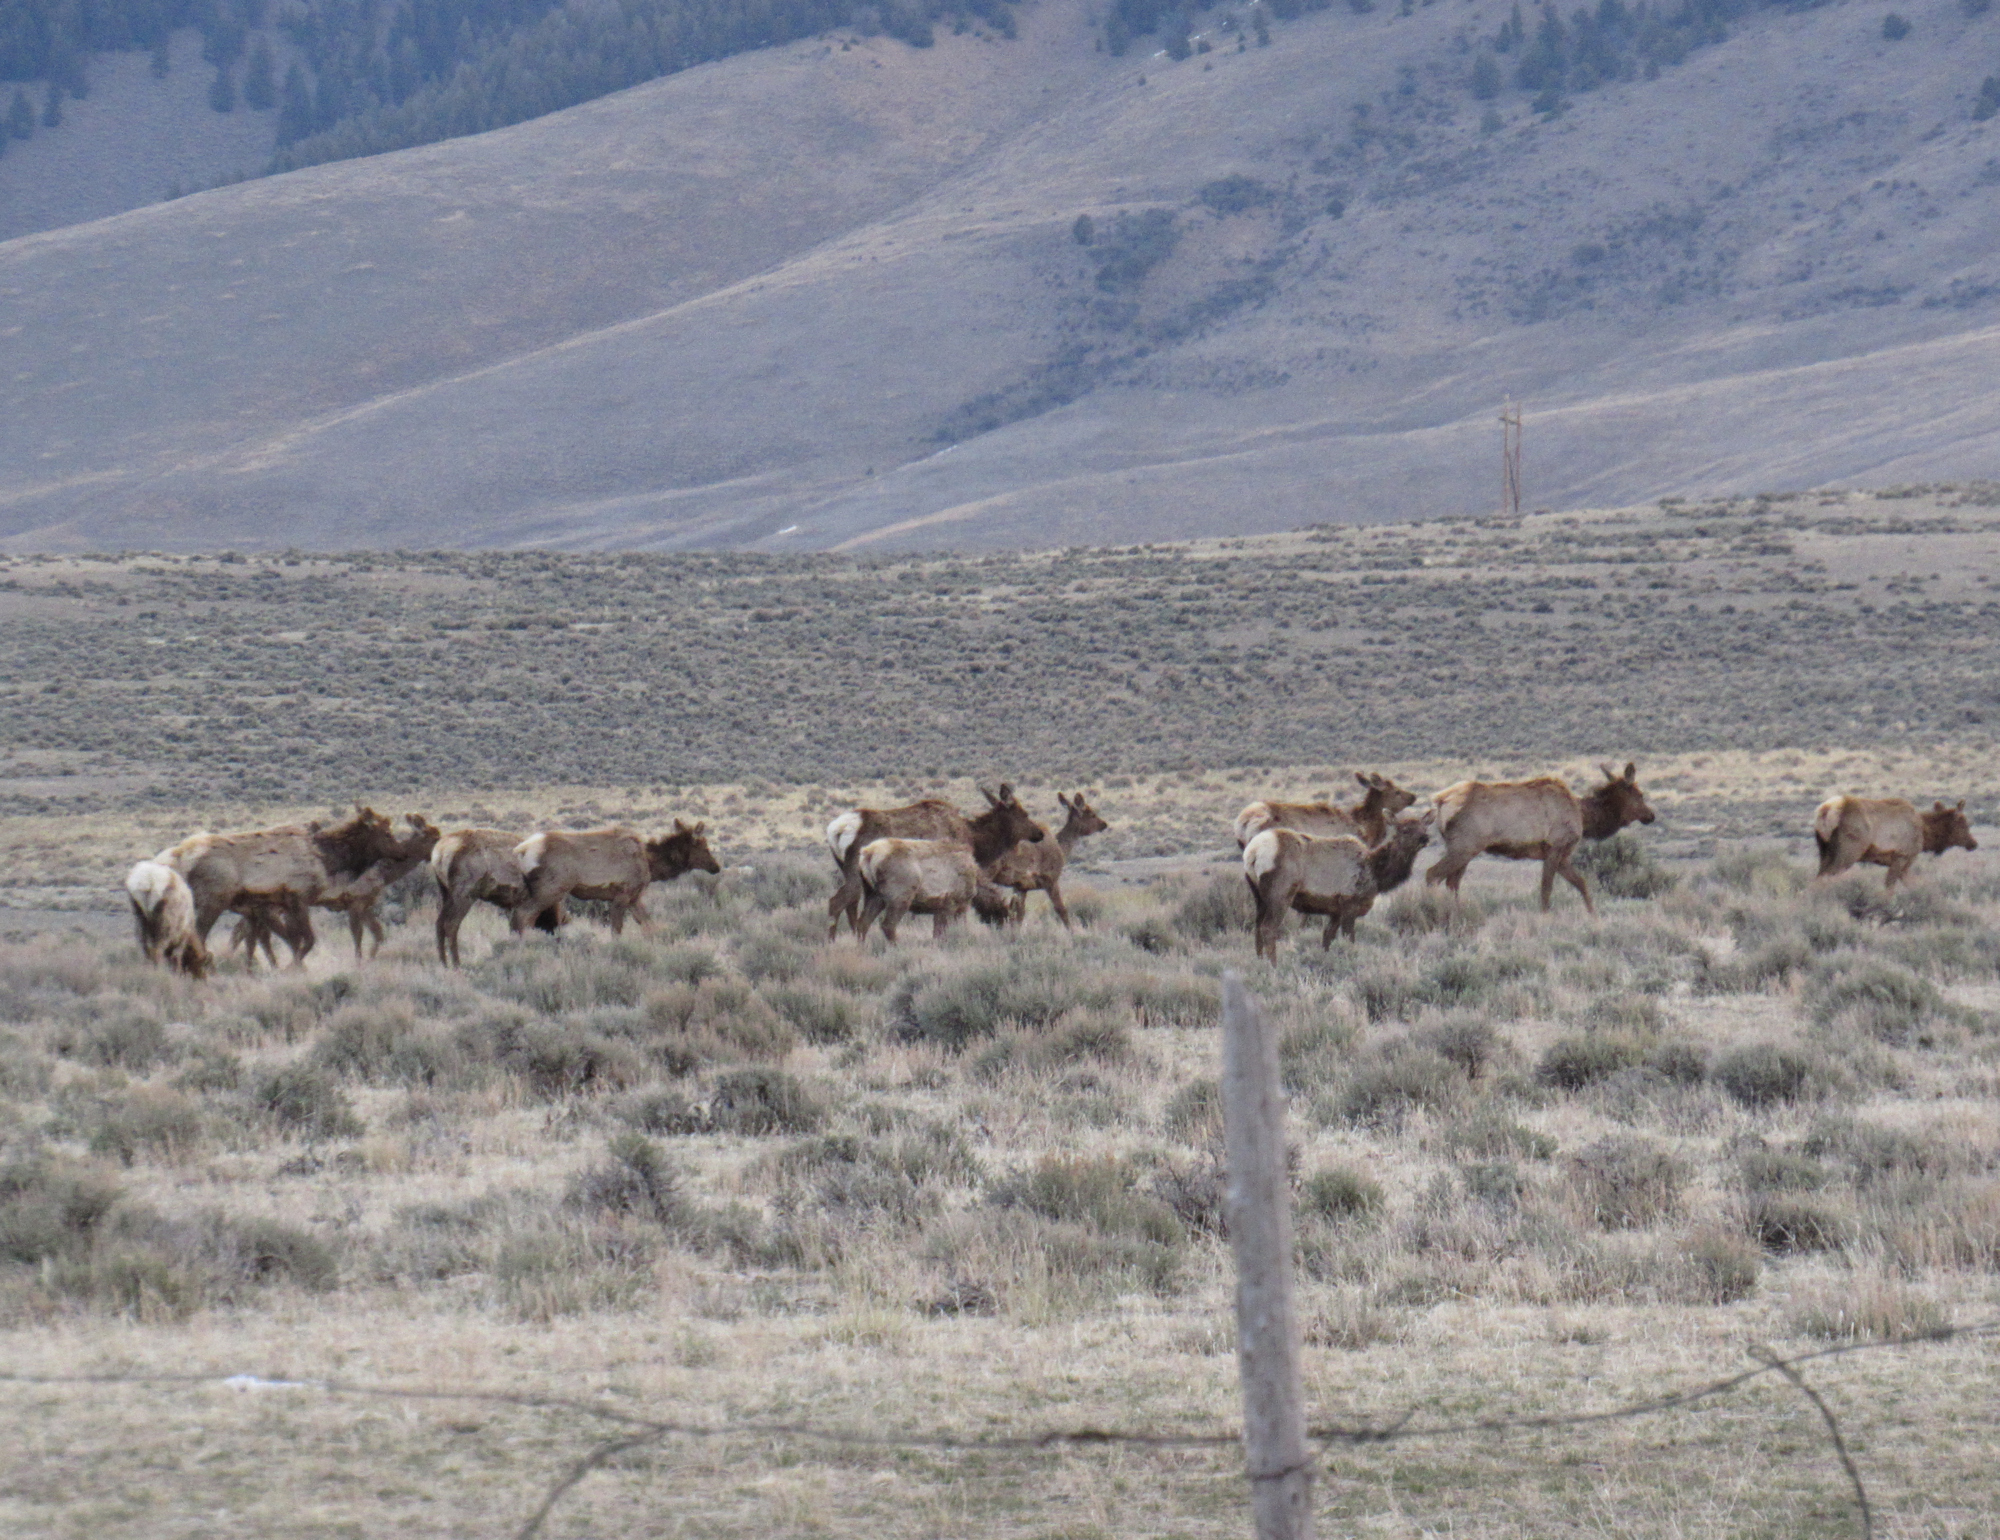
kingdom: Animalia
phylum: Chordata
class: Mammalia
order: Artiodactyla
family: Cervidae
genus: Cervus
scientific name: Cervus elaphus
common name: Red deer
